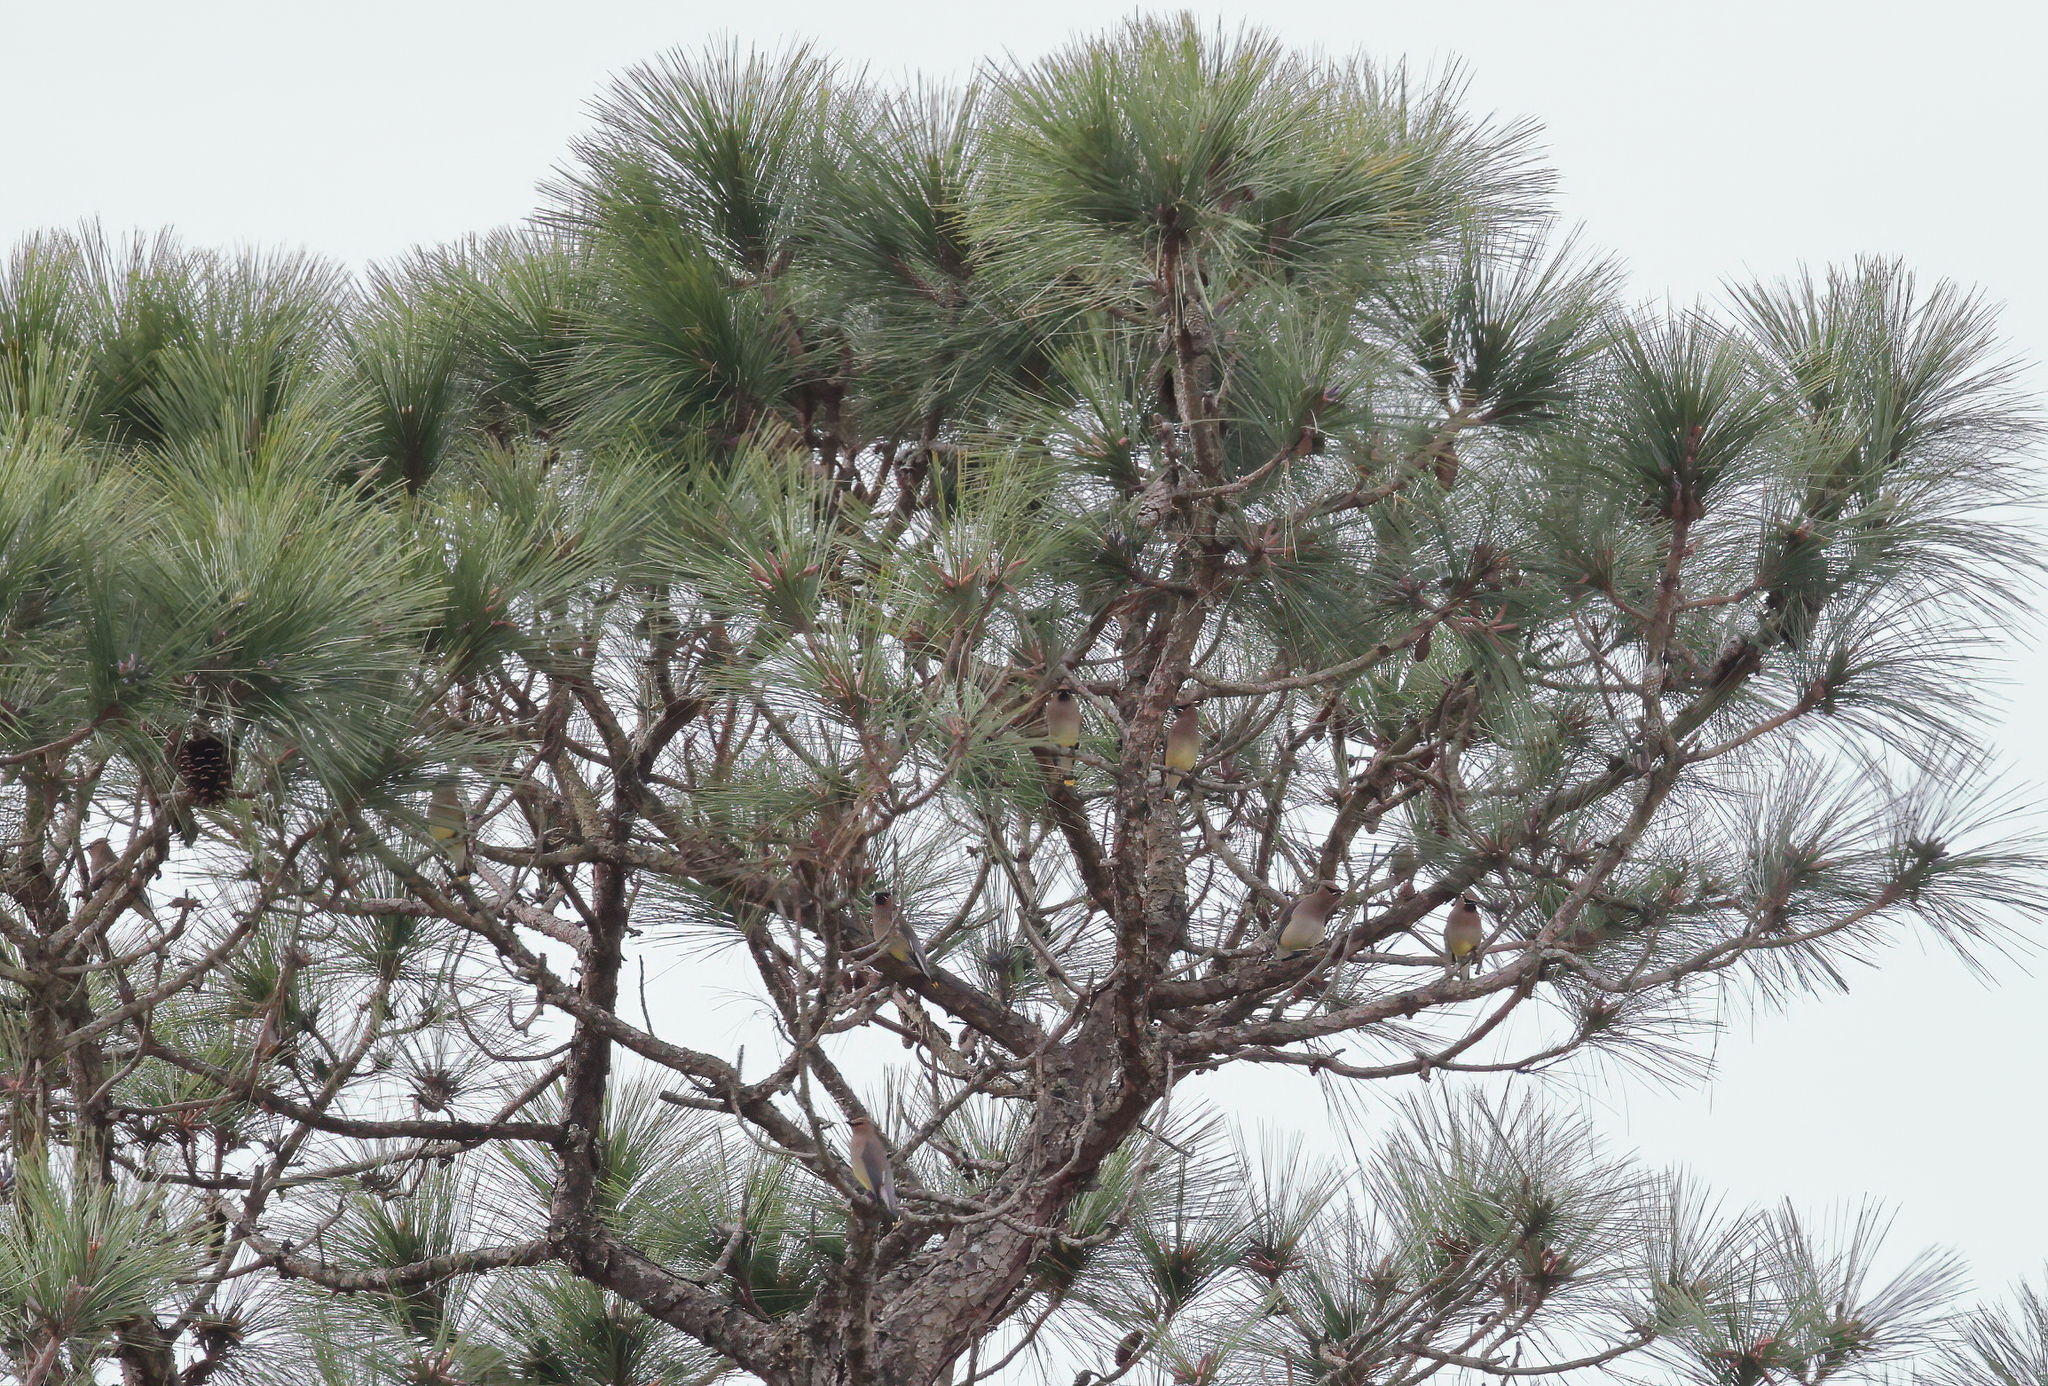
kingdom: Animalia
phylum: Chordata
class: Aves
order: Passeriformes
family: Bombycillidae
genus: Bombycilla
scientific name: Bombycilla cedrorum
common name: Cedar waxwing
